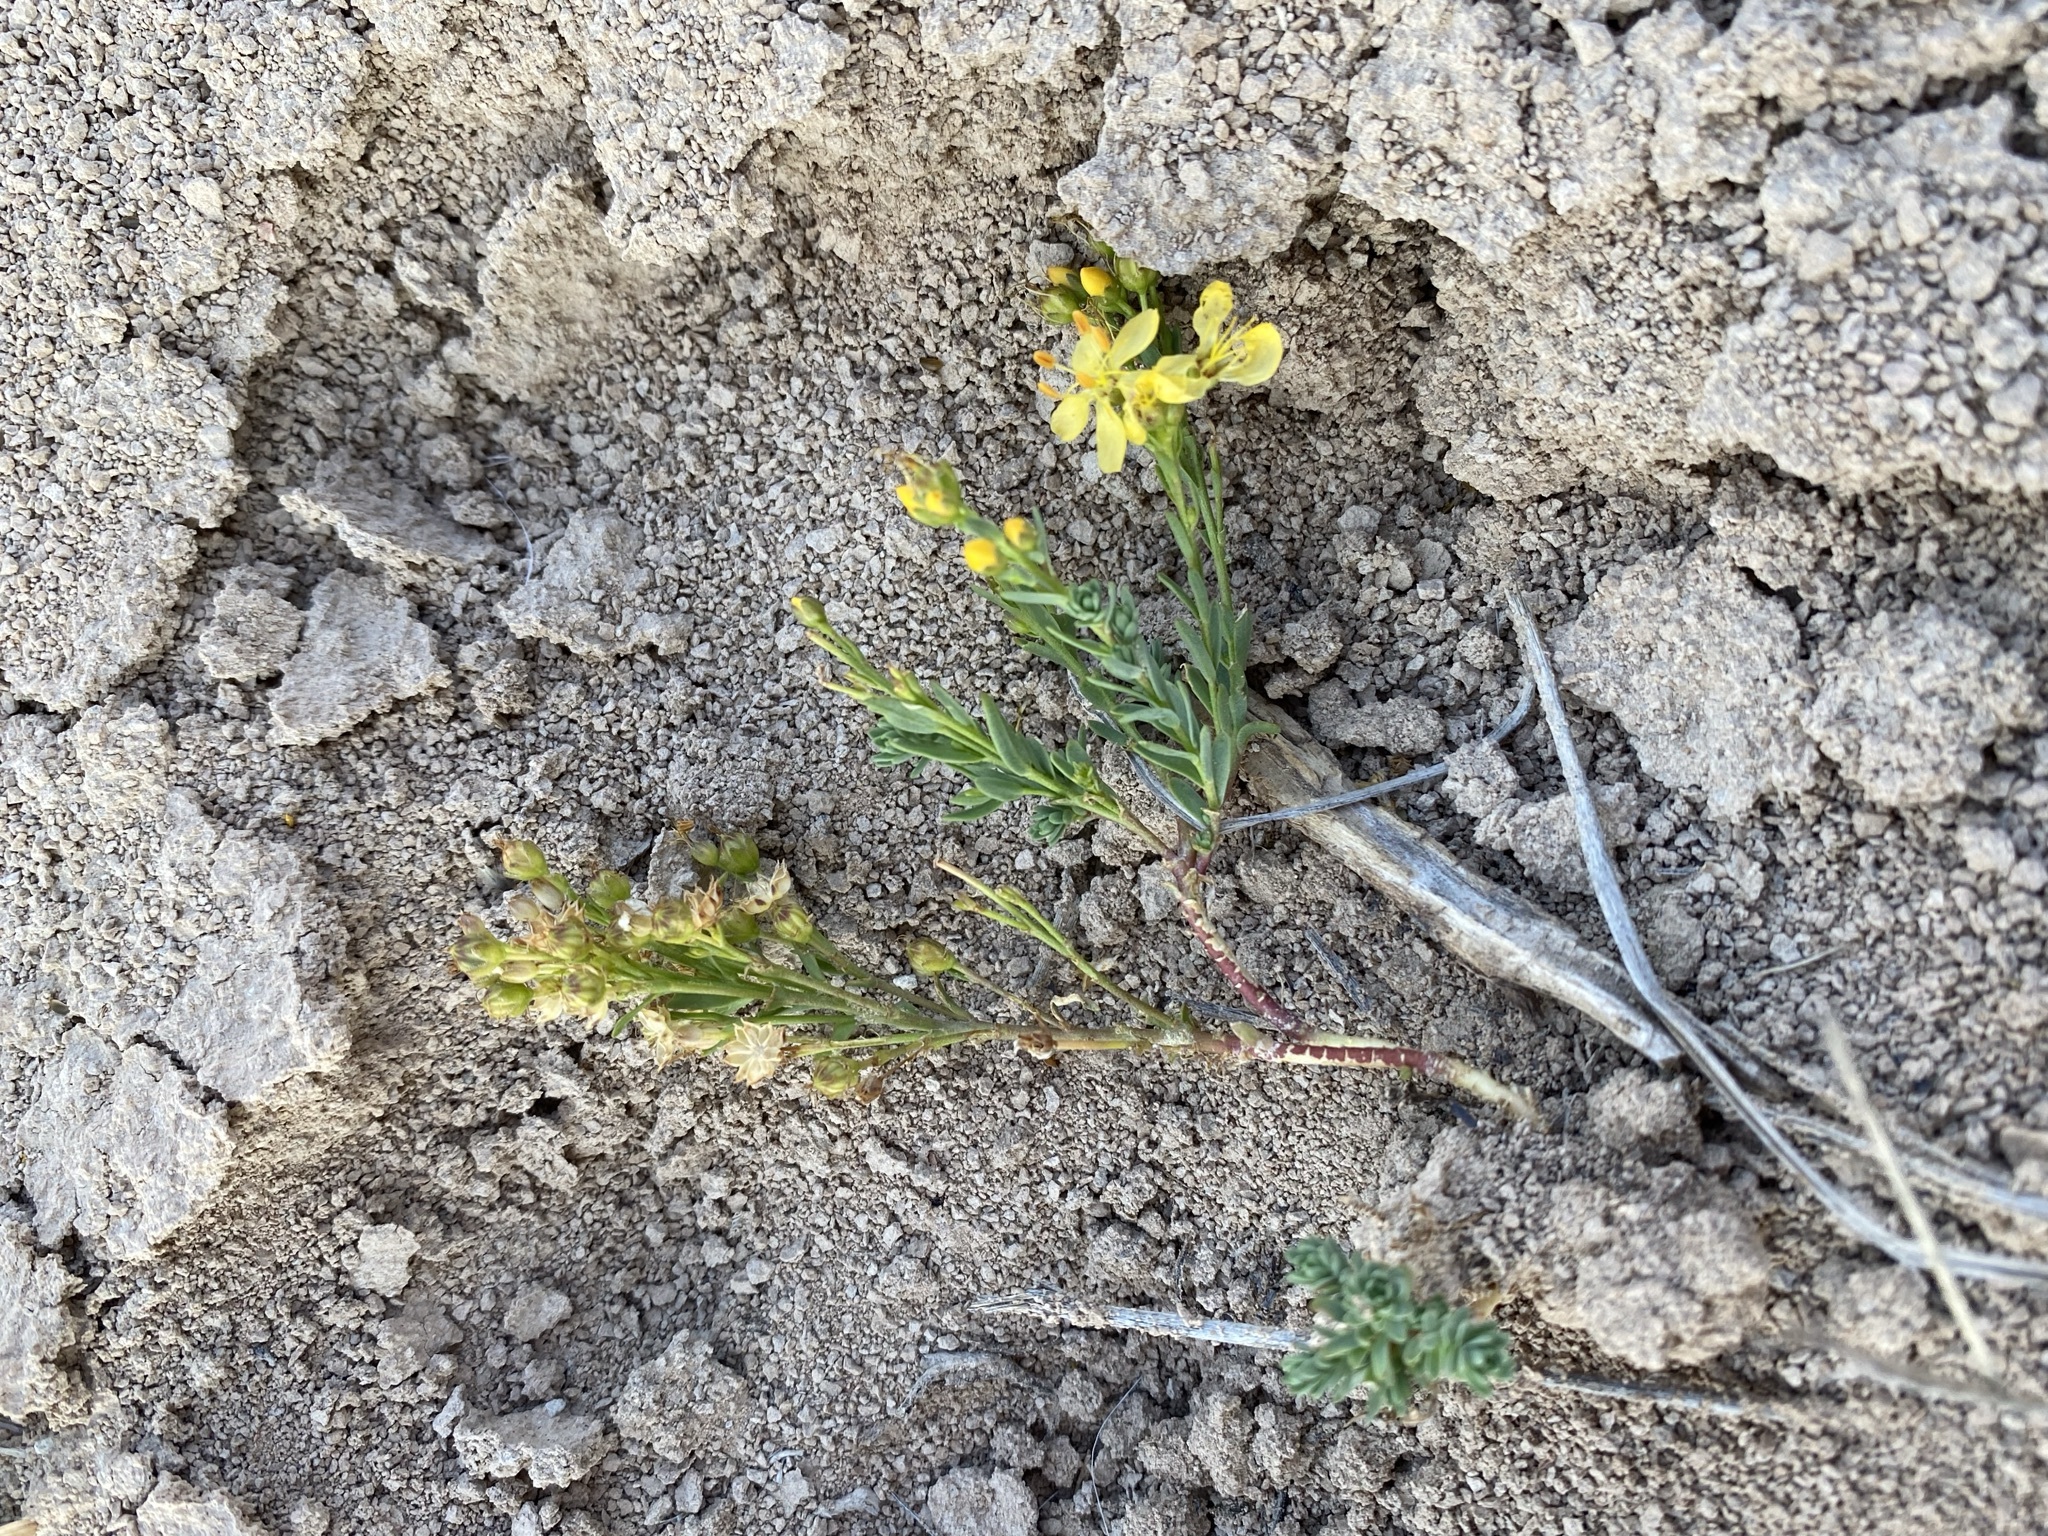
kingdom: Plantae
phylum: Tracheophyta
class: Magnoliopsida
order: Malpighiales
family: Linaceae
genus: Linum
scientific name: Linum kingii
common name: King's yellow flax
